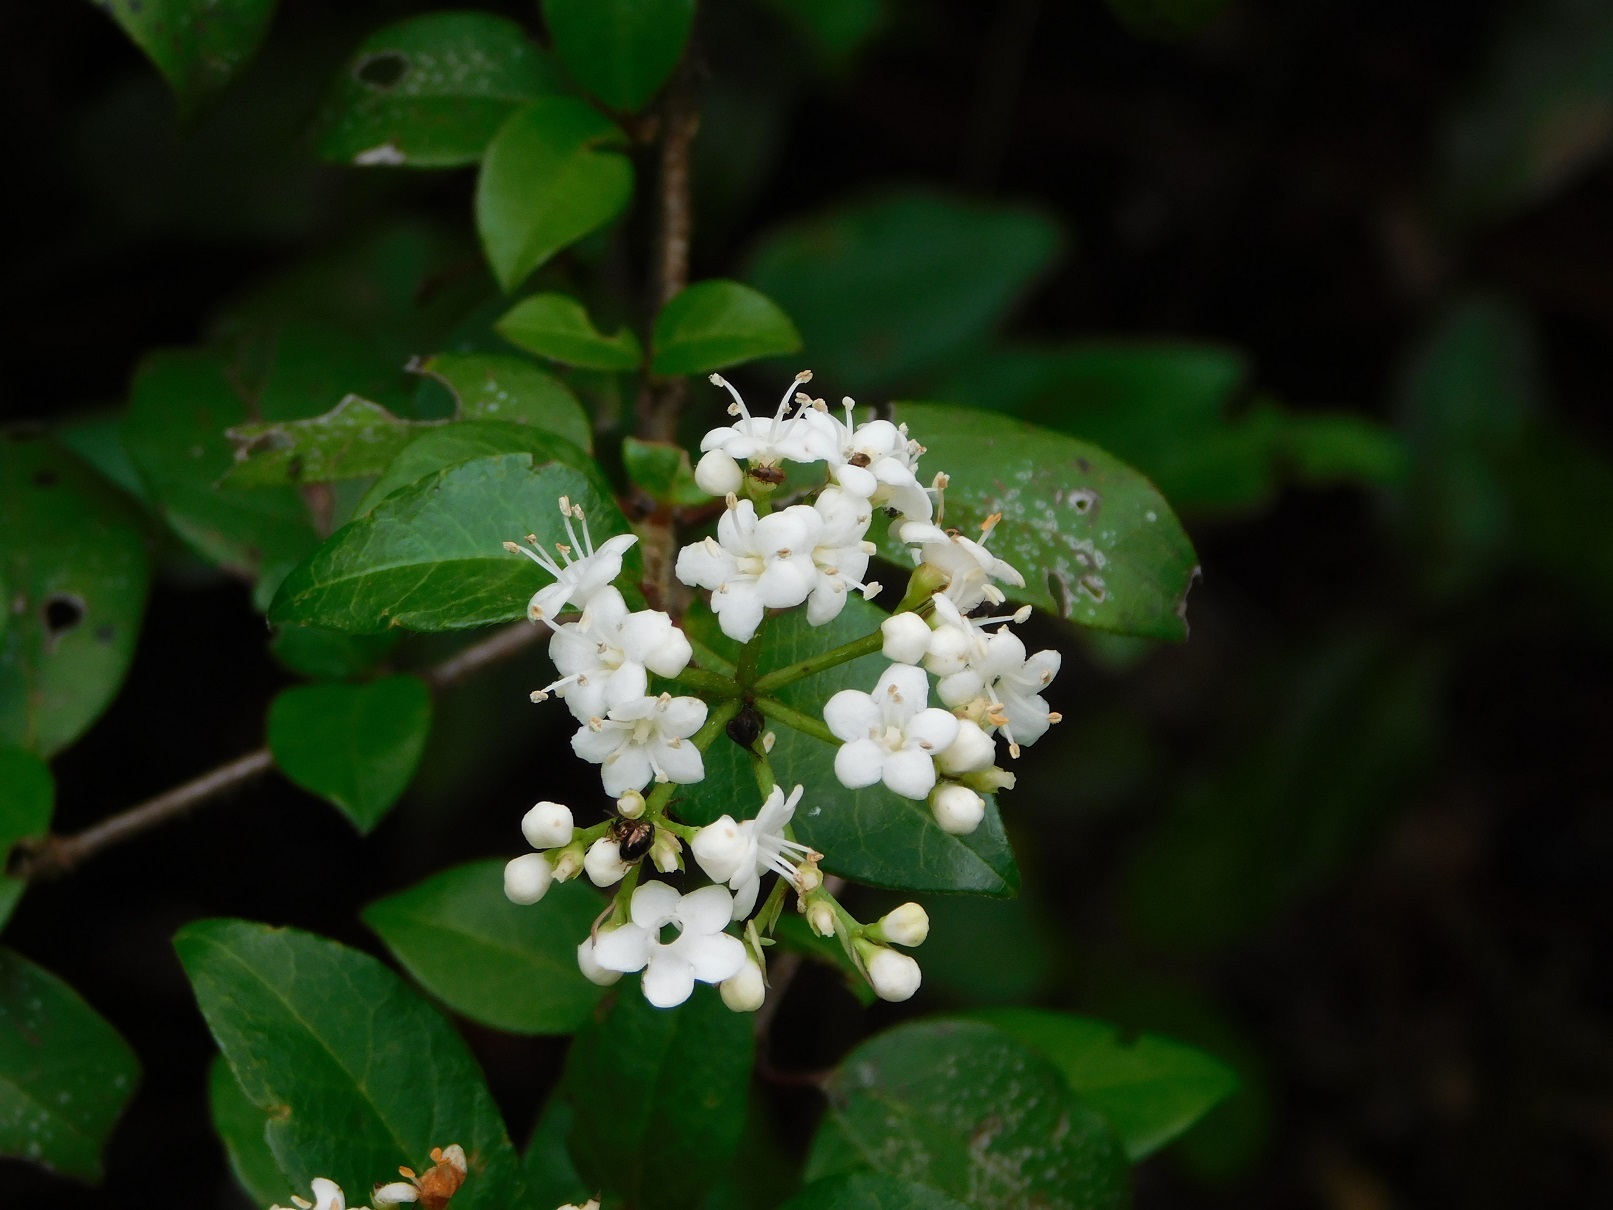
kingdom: Plantae
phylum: Tracheophyta
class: Magnoliopsida
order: Dipsacales
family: Viburnaceae
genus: Viburnum
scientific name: Viburnum lautum
